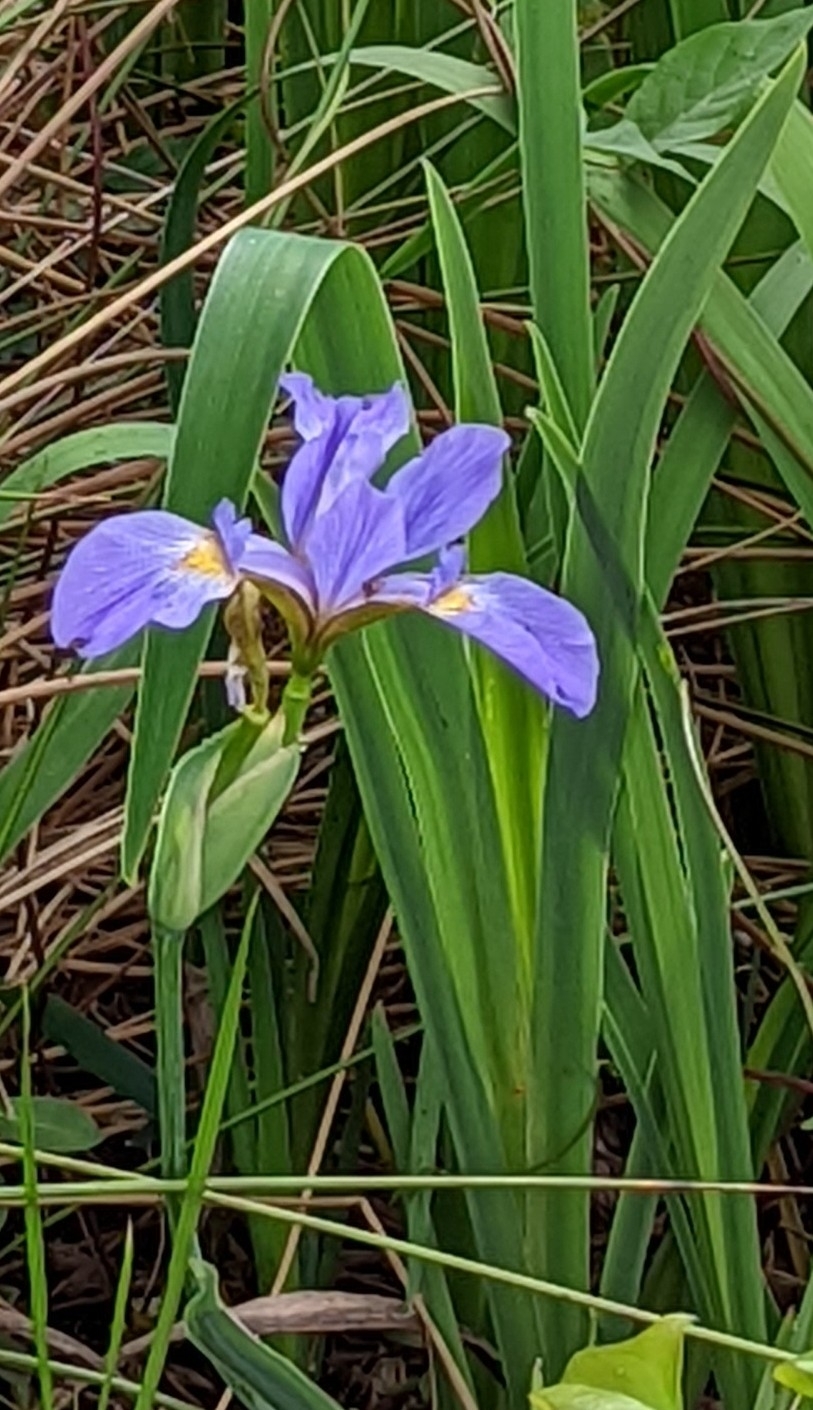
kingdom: Plantae
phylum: Tracheophyta
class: Liliopsida
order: Asparagales
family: Iridaceae
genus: Iris
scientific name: Iris virginica
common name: Southern blue flag
